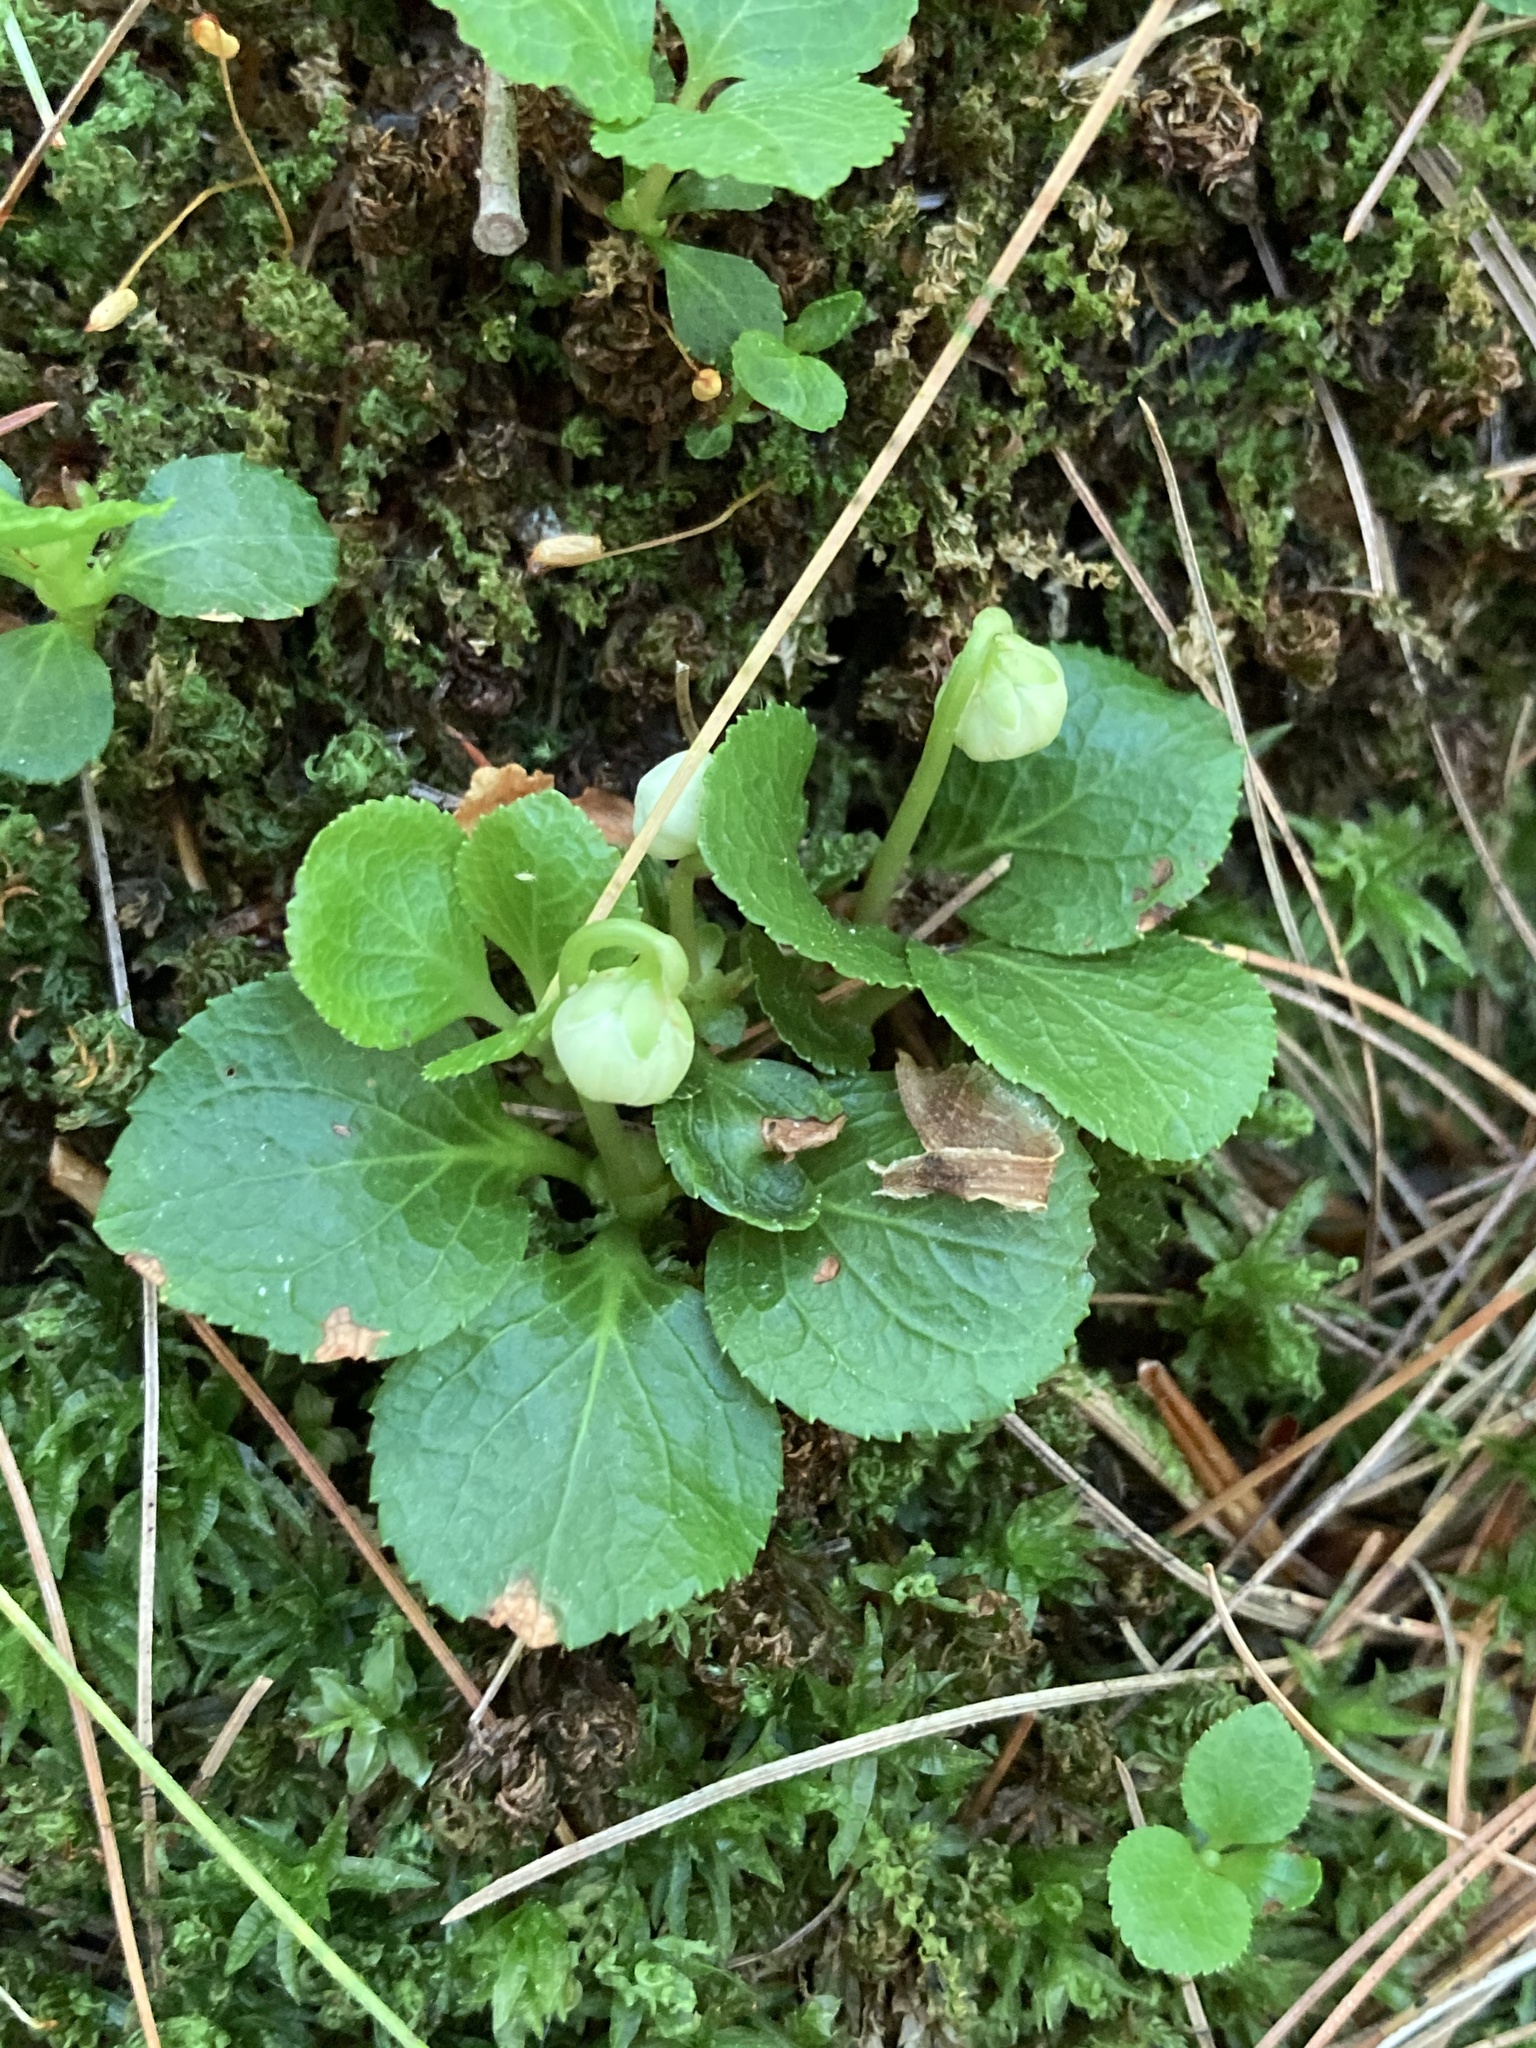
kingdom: Plantae
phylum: Tracheophyta
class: Magnoliopsida
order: Ericales
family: Ericaceae
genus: Moneses
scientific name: Moneses uniflora
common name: One-flowered wintergreen
